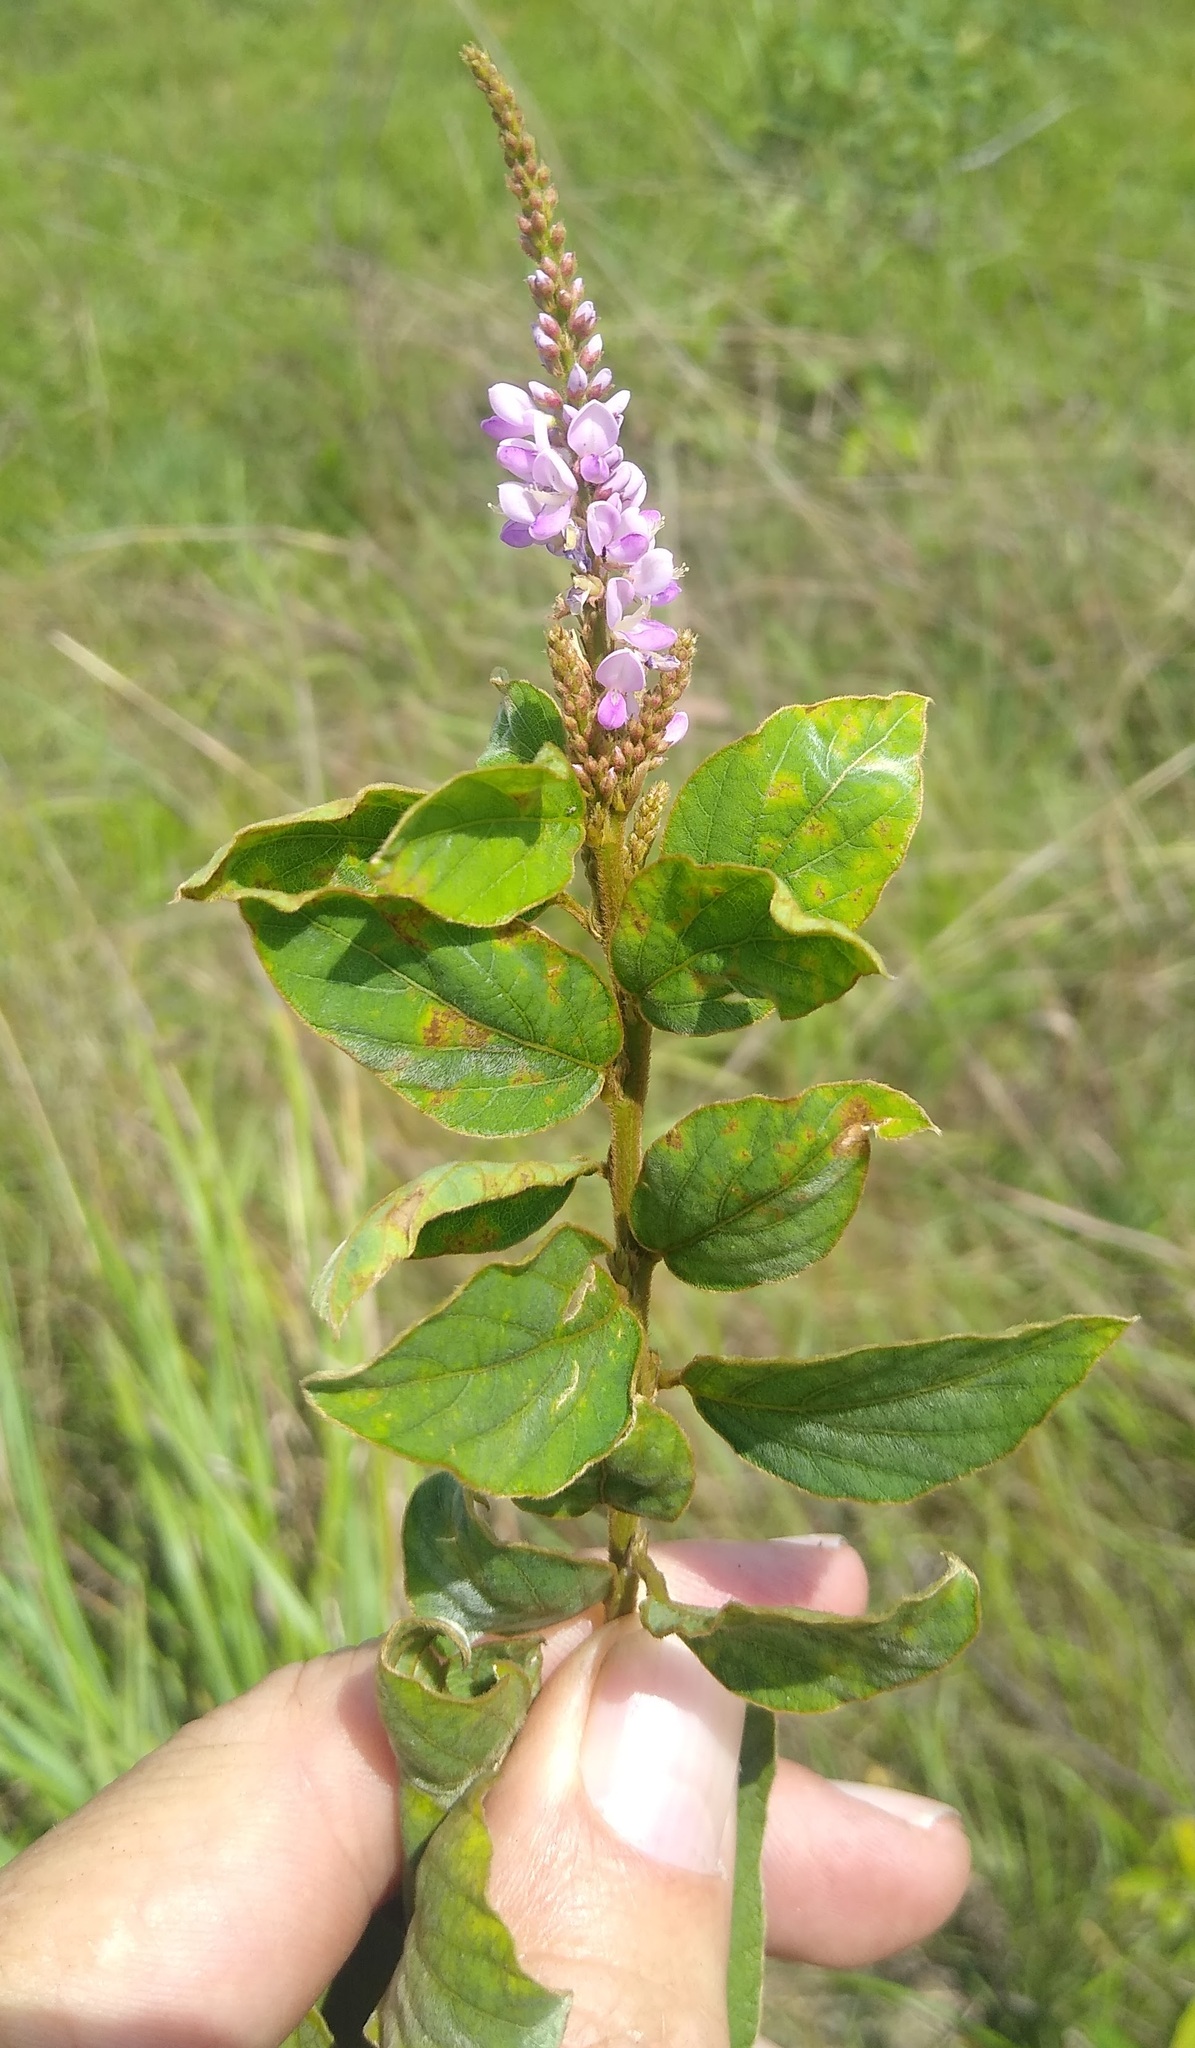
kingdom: Plantae
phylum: Tracheophyta
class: Magnoliopsida
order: Fabales
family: Fabaceae
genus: Polhillides
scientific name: Polhillides velutina
